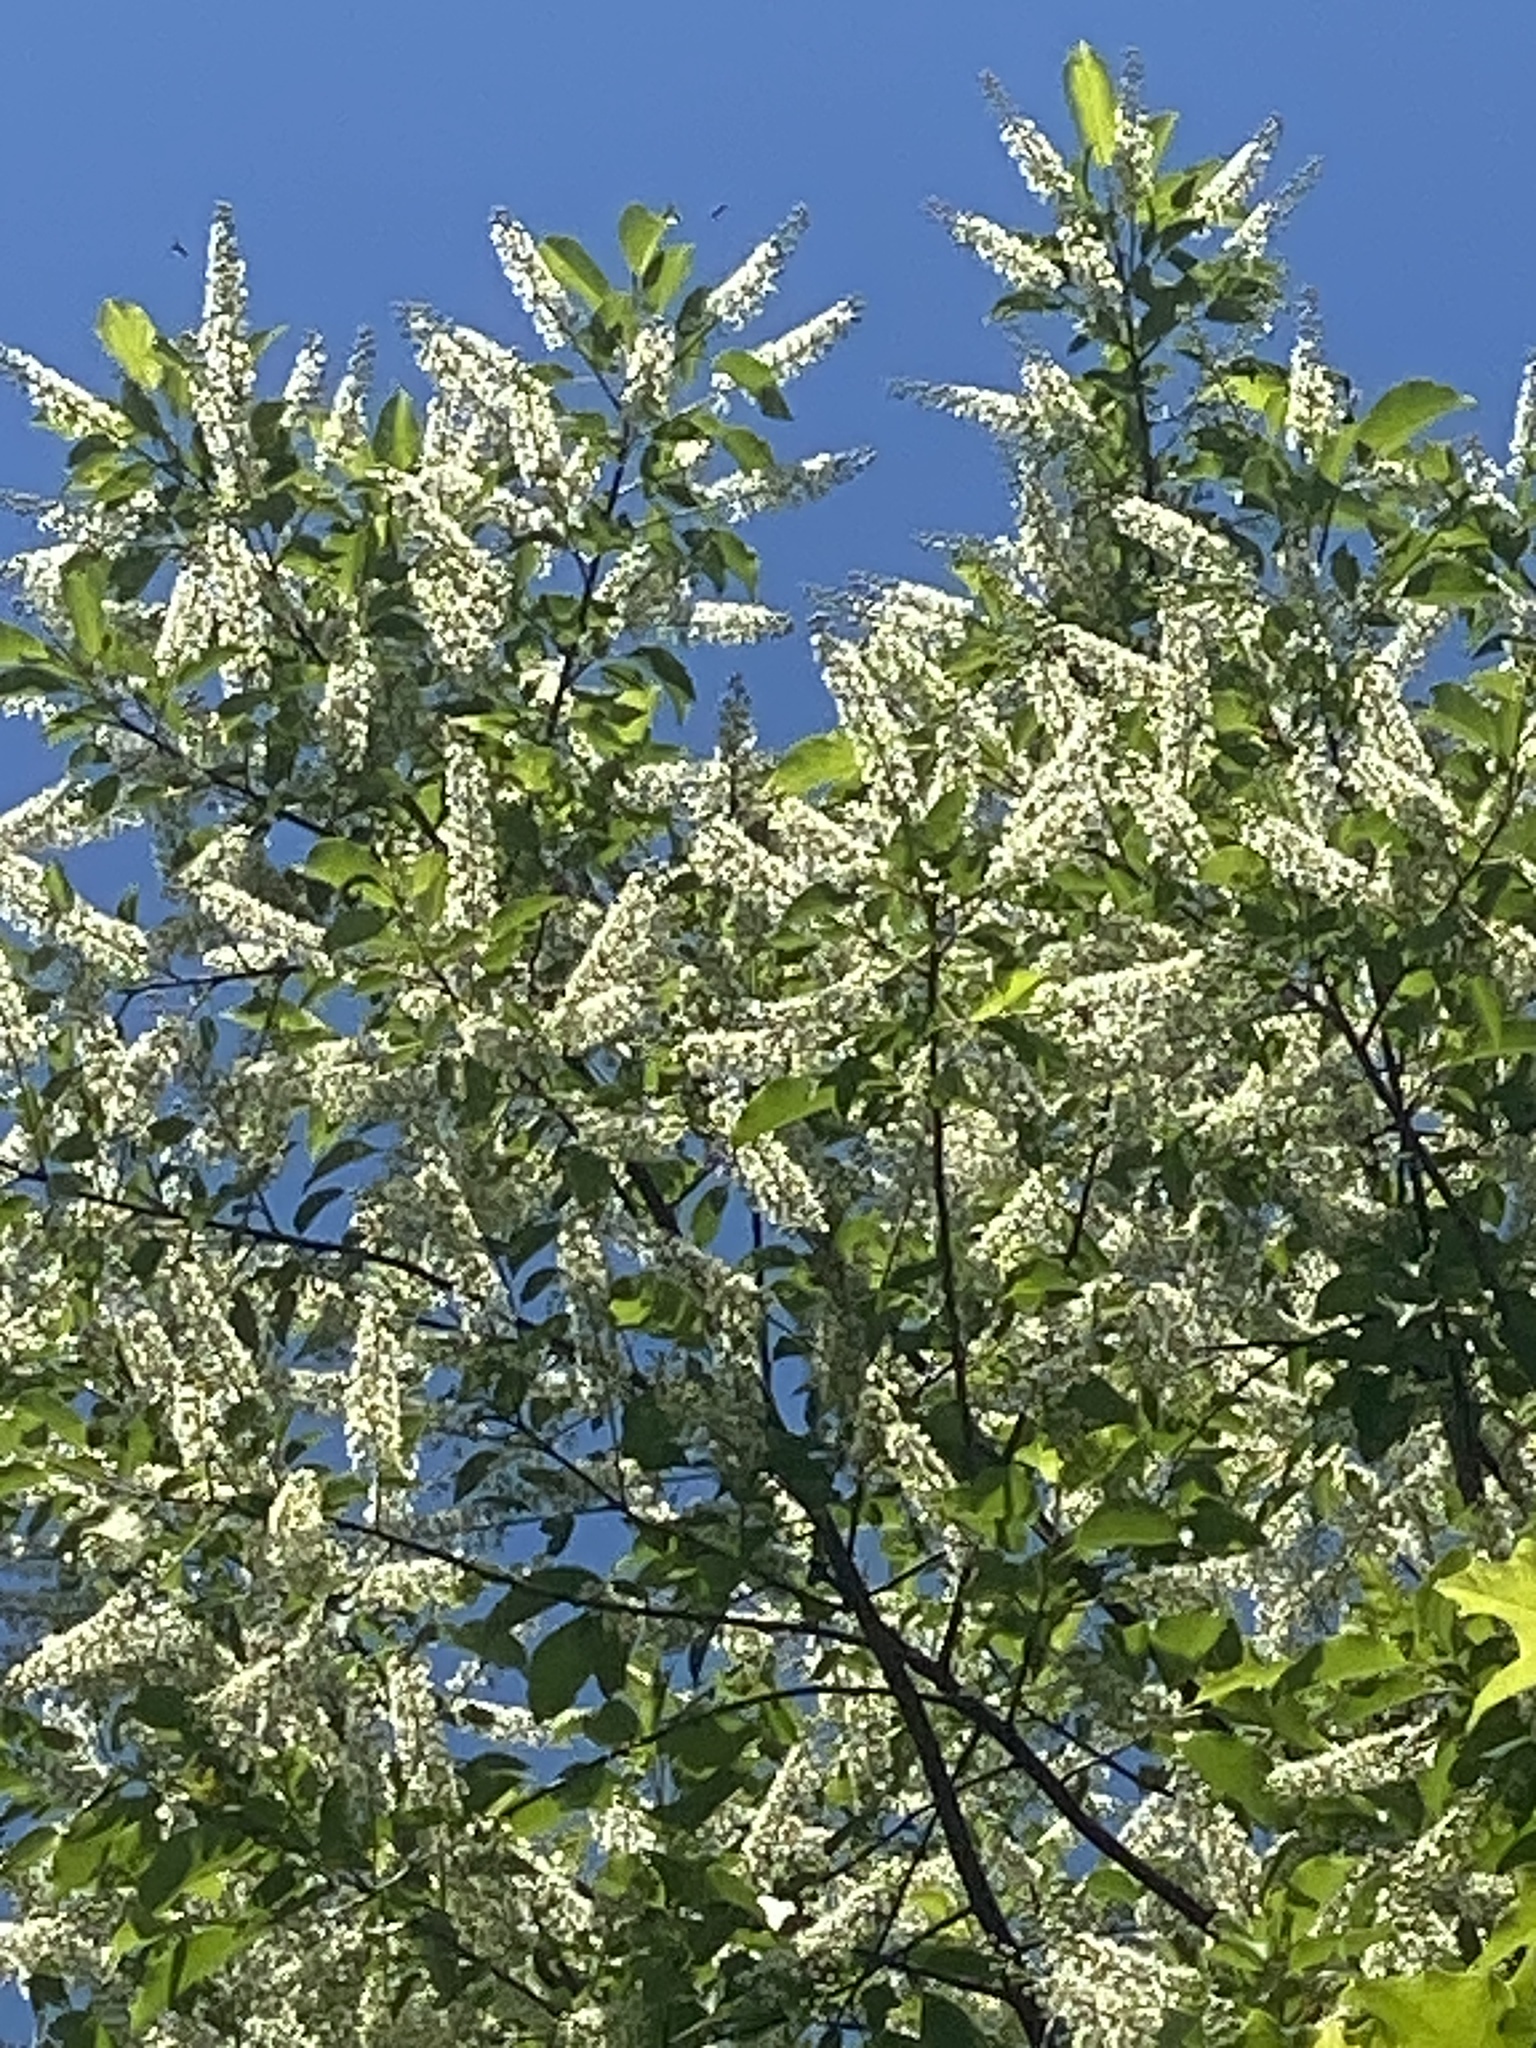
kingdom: Plantae
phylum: Tracheophyta
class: Magnoliopsida
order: Rosales
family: Rosaceae
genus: Prunus
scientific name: Prunus serotina
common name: Black cherry
